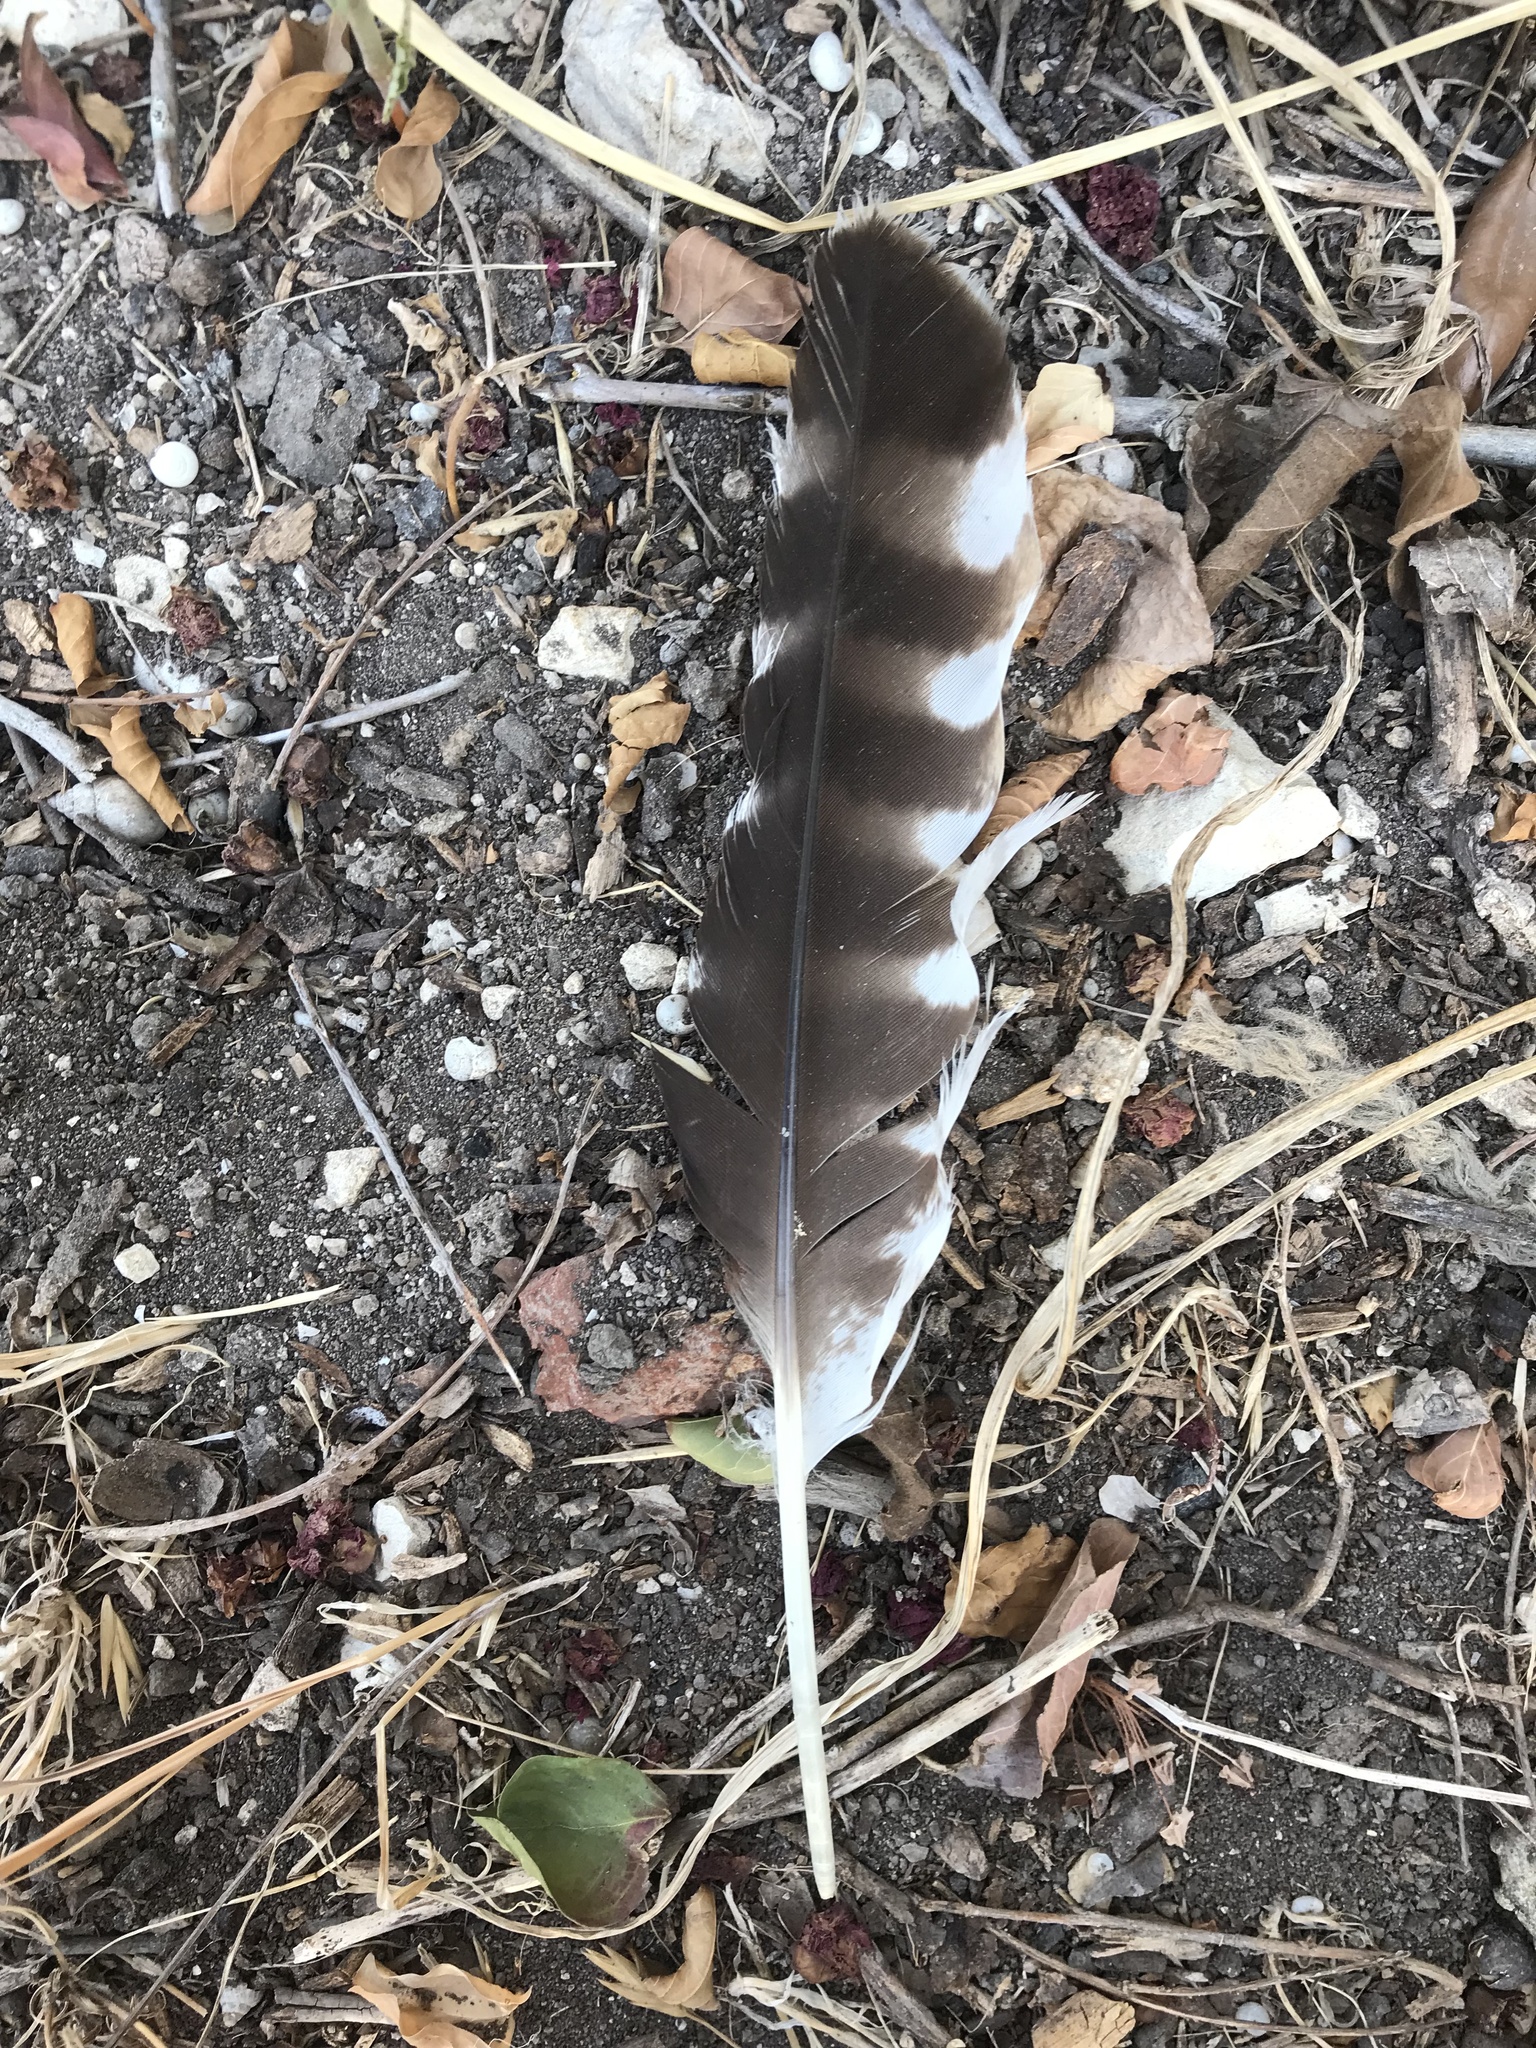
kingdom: Animalia
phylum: Chordata
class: Aves
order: Accipitriformes
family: Accipitridae
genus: Buteo
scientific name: Buteo lineatus
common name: Red-shouldered hawk
